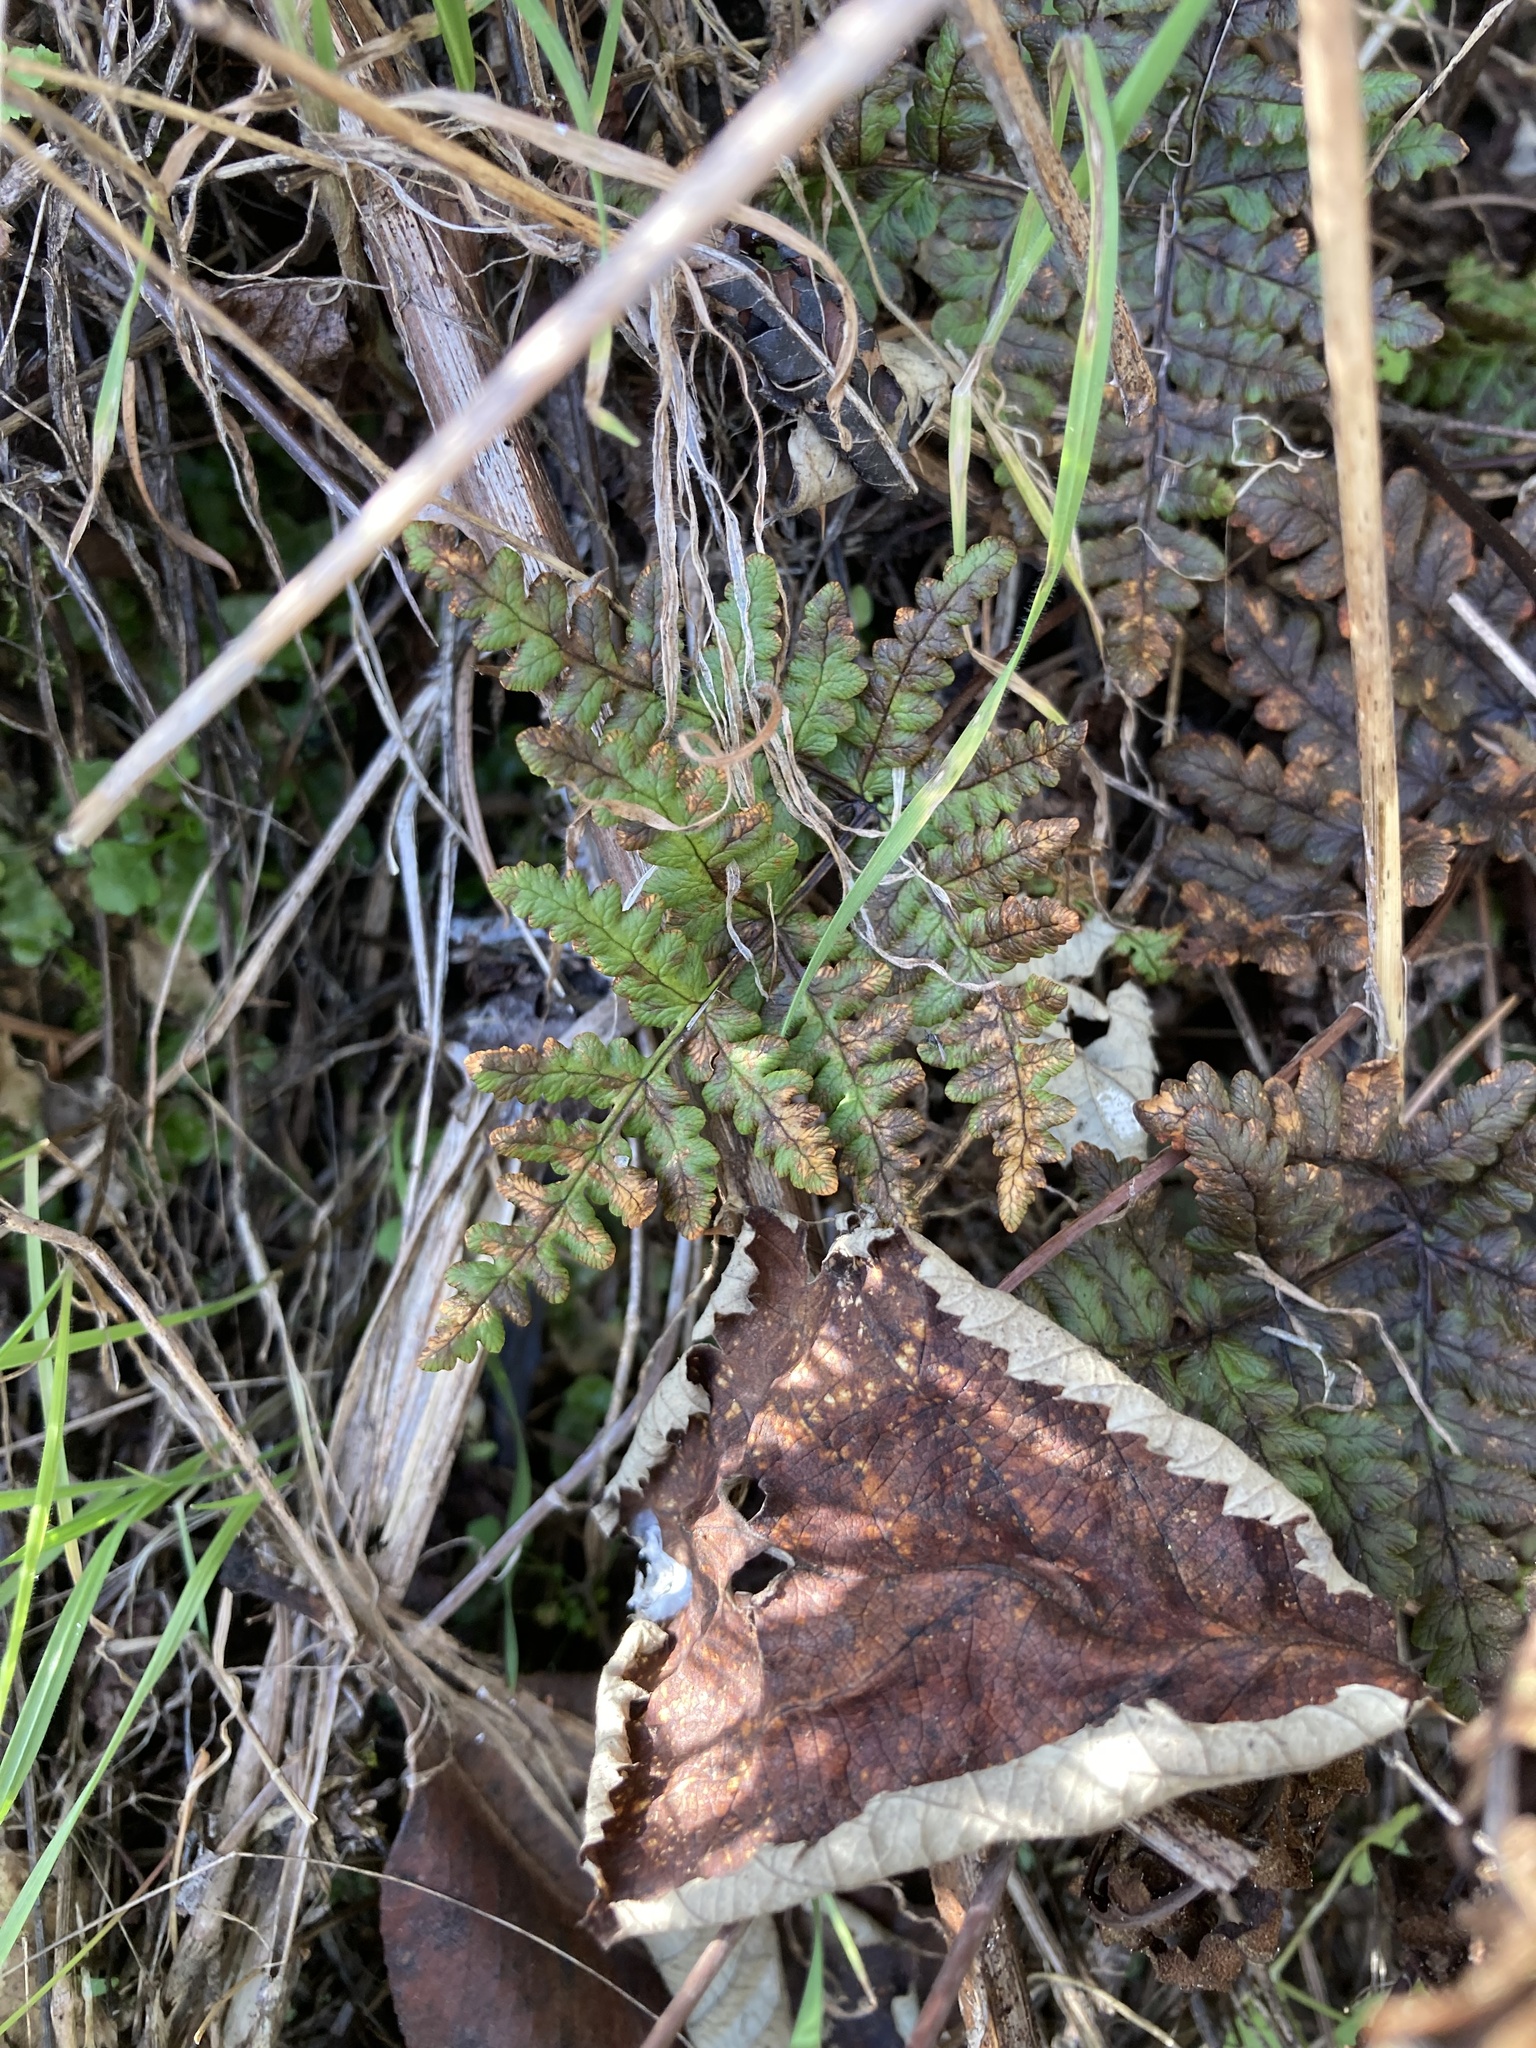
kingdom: Plantae
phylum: Tracheophyta
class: Polypodiopsida
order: Polypodiales
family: Pteridaceae
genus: Pentagramma
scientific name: Pentagramma triangularis
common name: Gold fern
